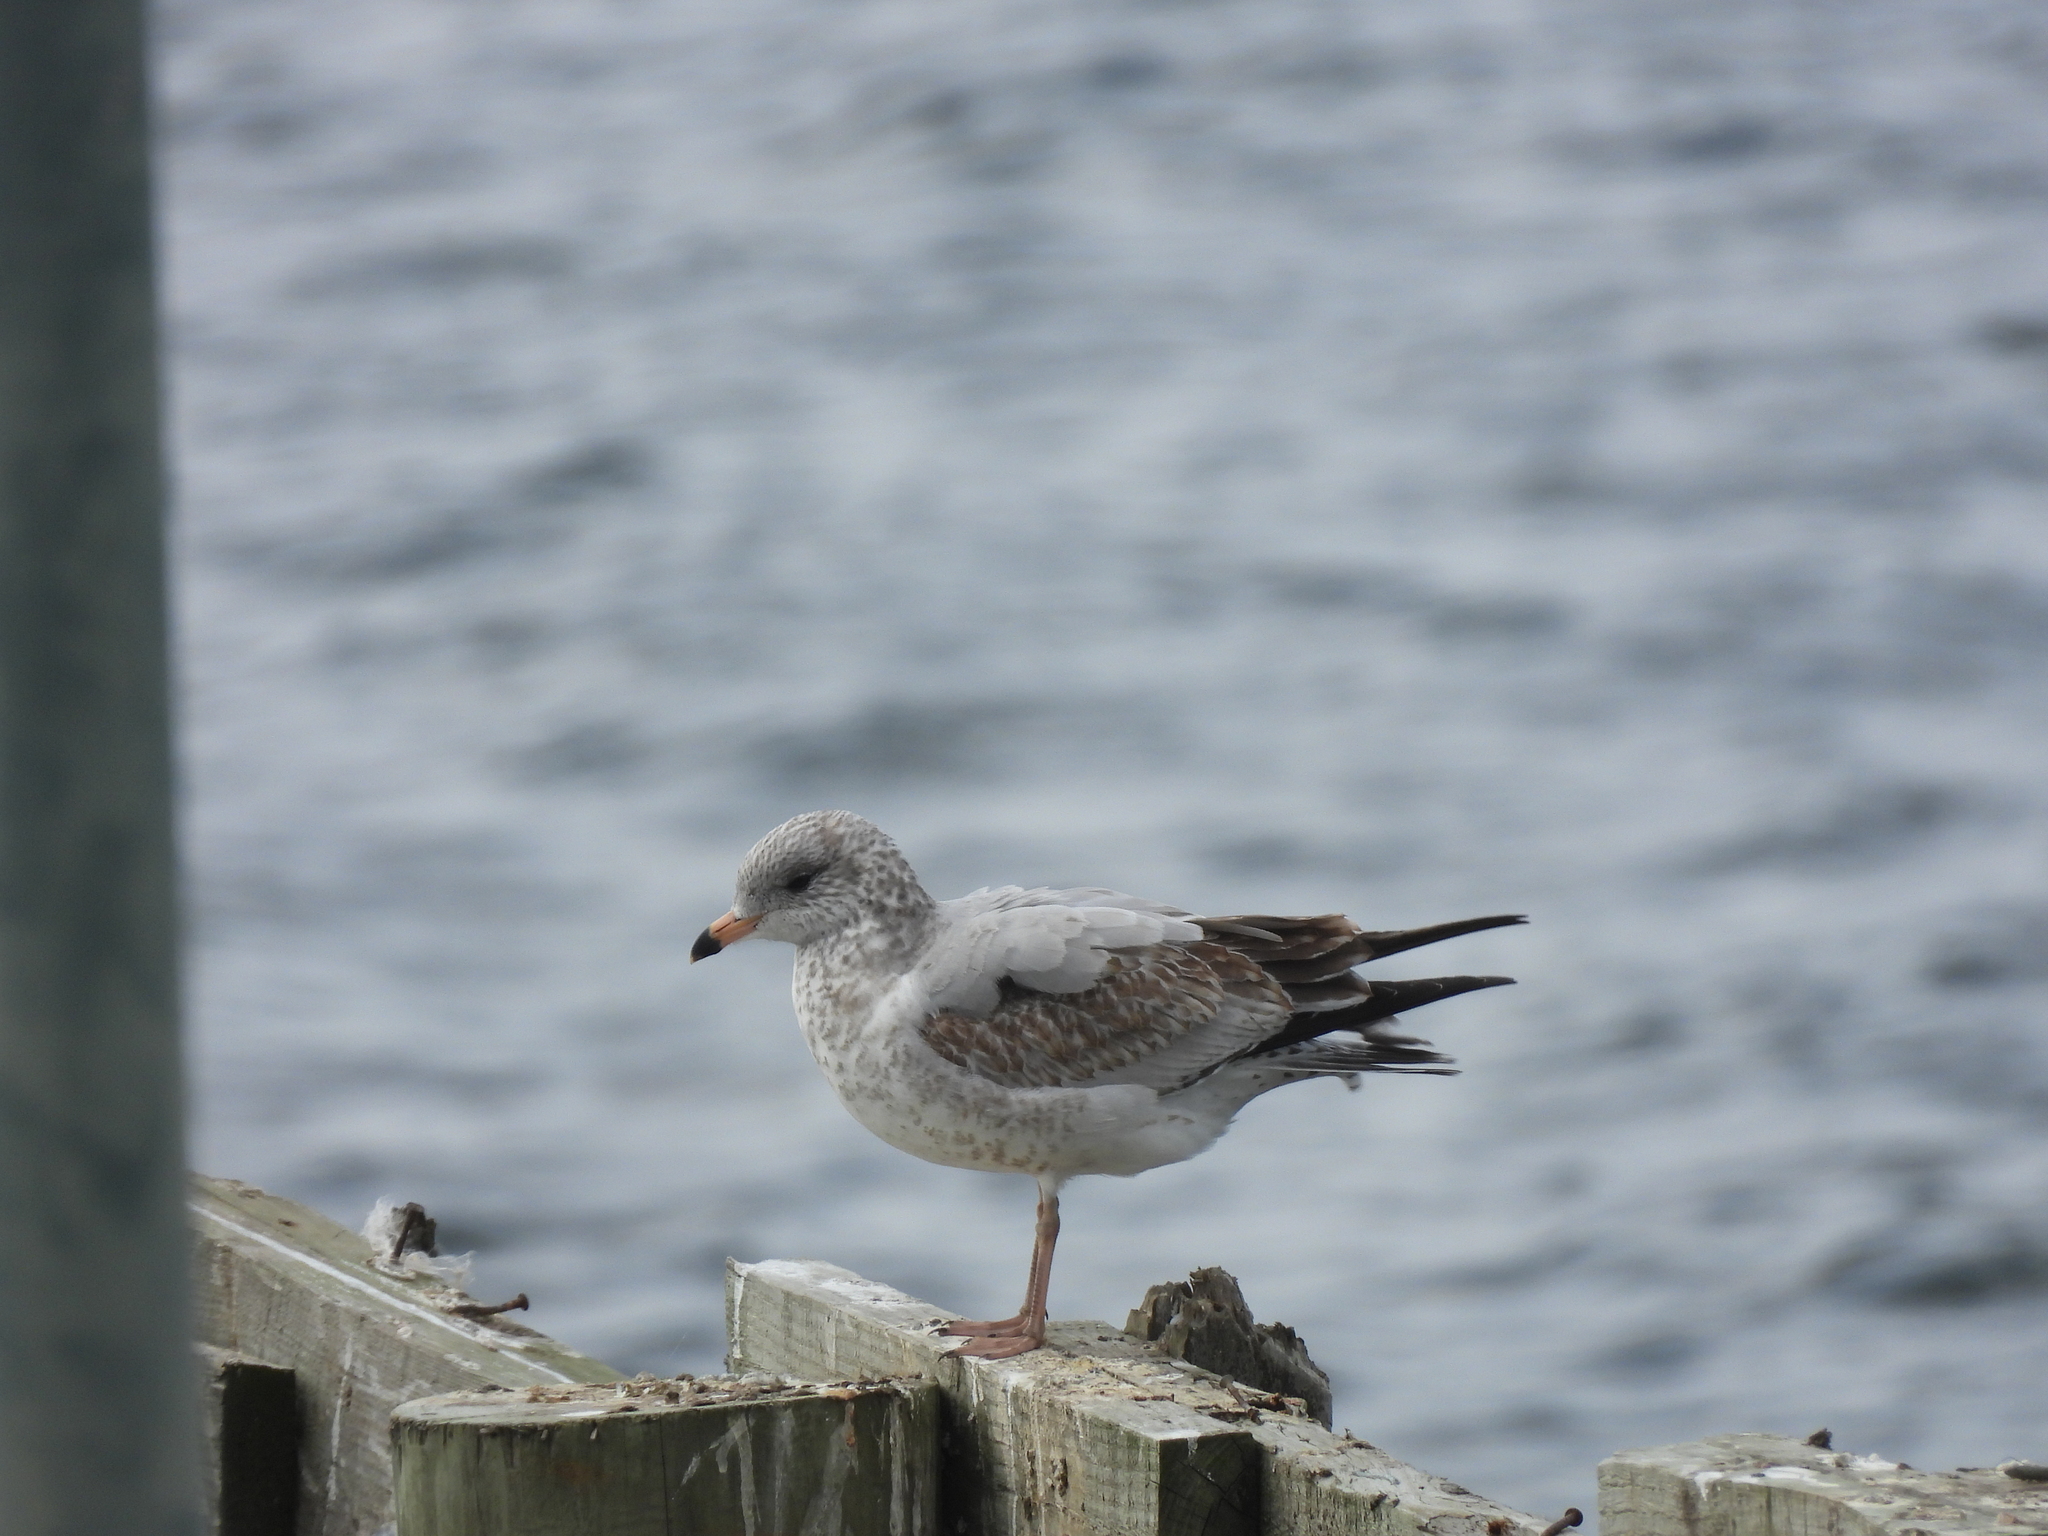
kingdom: Animalia
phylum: Chordata
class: Aves
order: Charadriiformes
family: Laridae
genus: Larus
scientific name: Larus delawarensis
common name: Ring-billed gull
